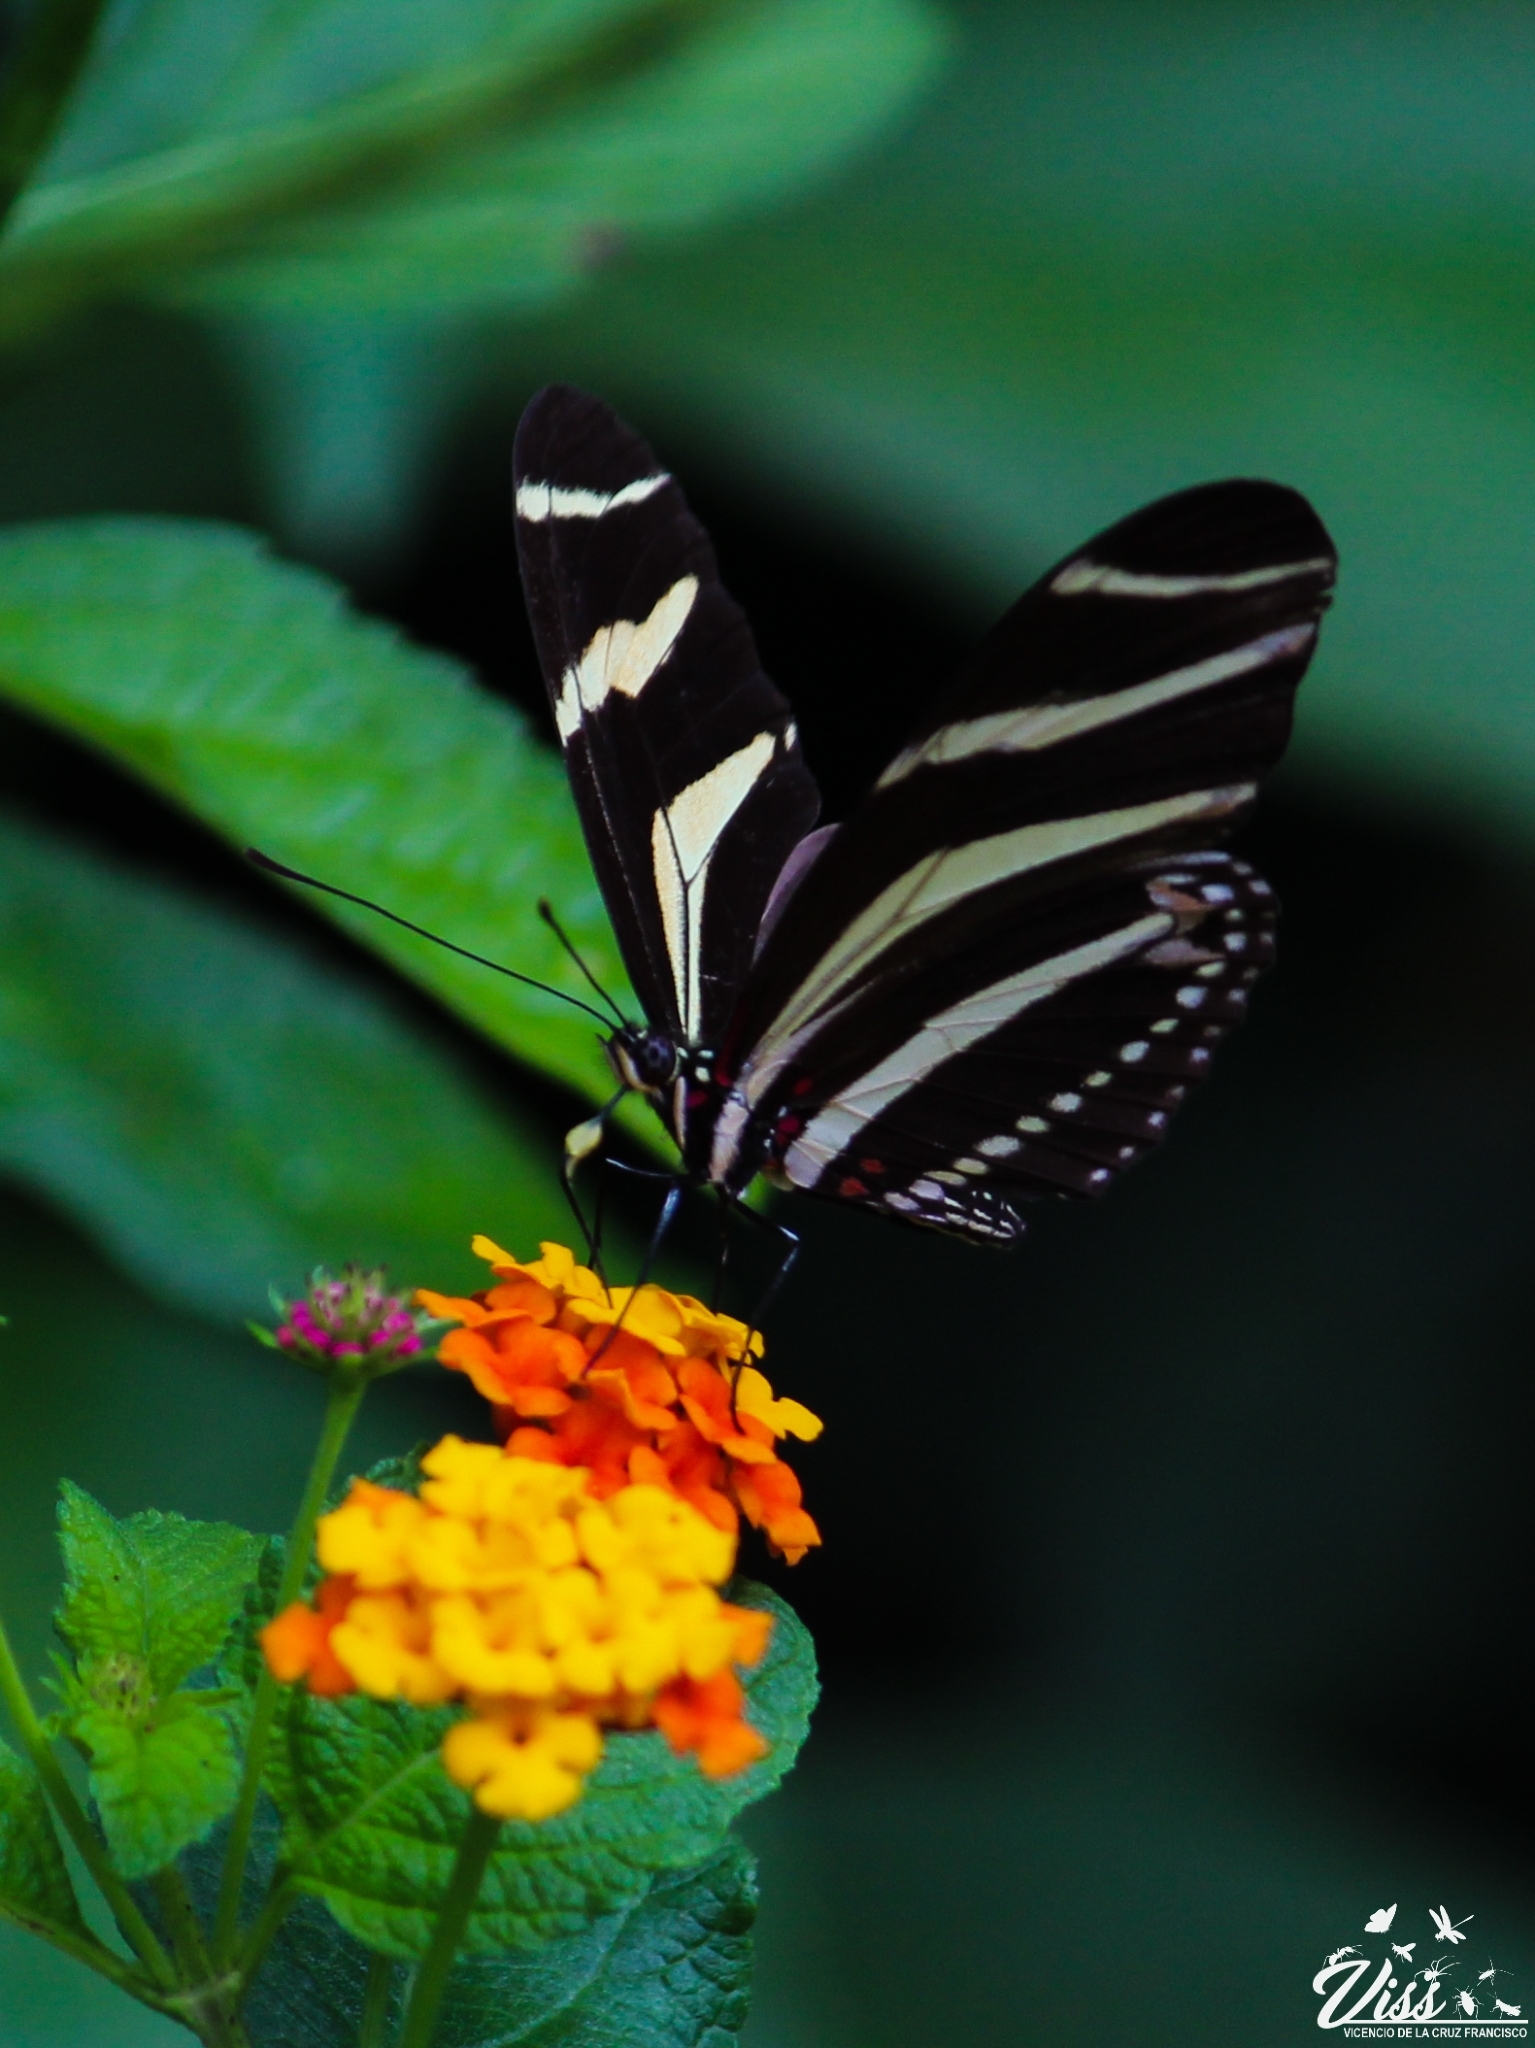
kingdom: Animalia
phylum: Arthropoda
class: Insecta
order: Lepidoptera
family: Nymphalidae
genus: Heliconius
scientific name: Heliconius charithonia
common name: Zebra long wing
